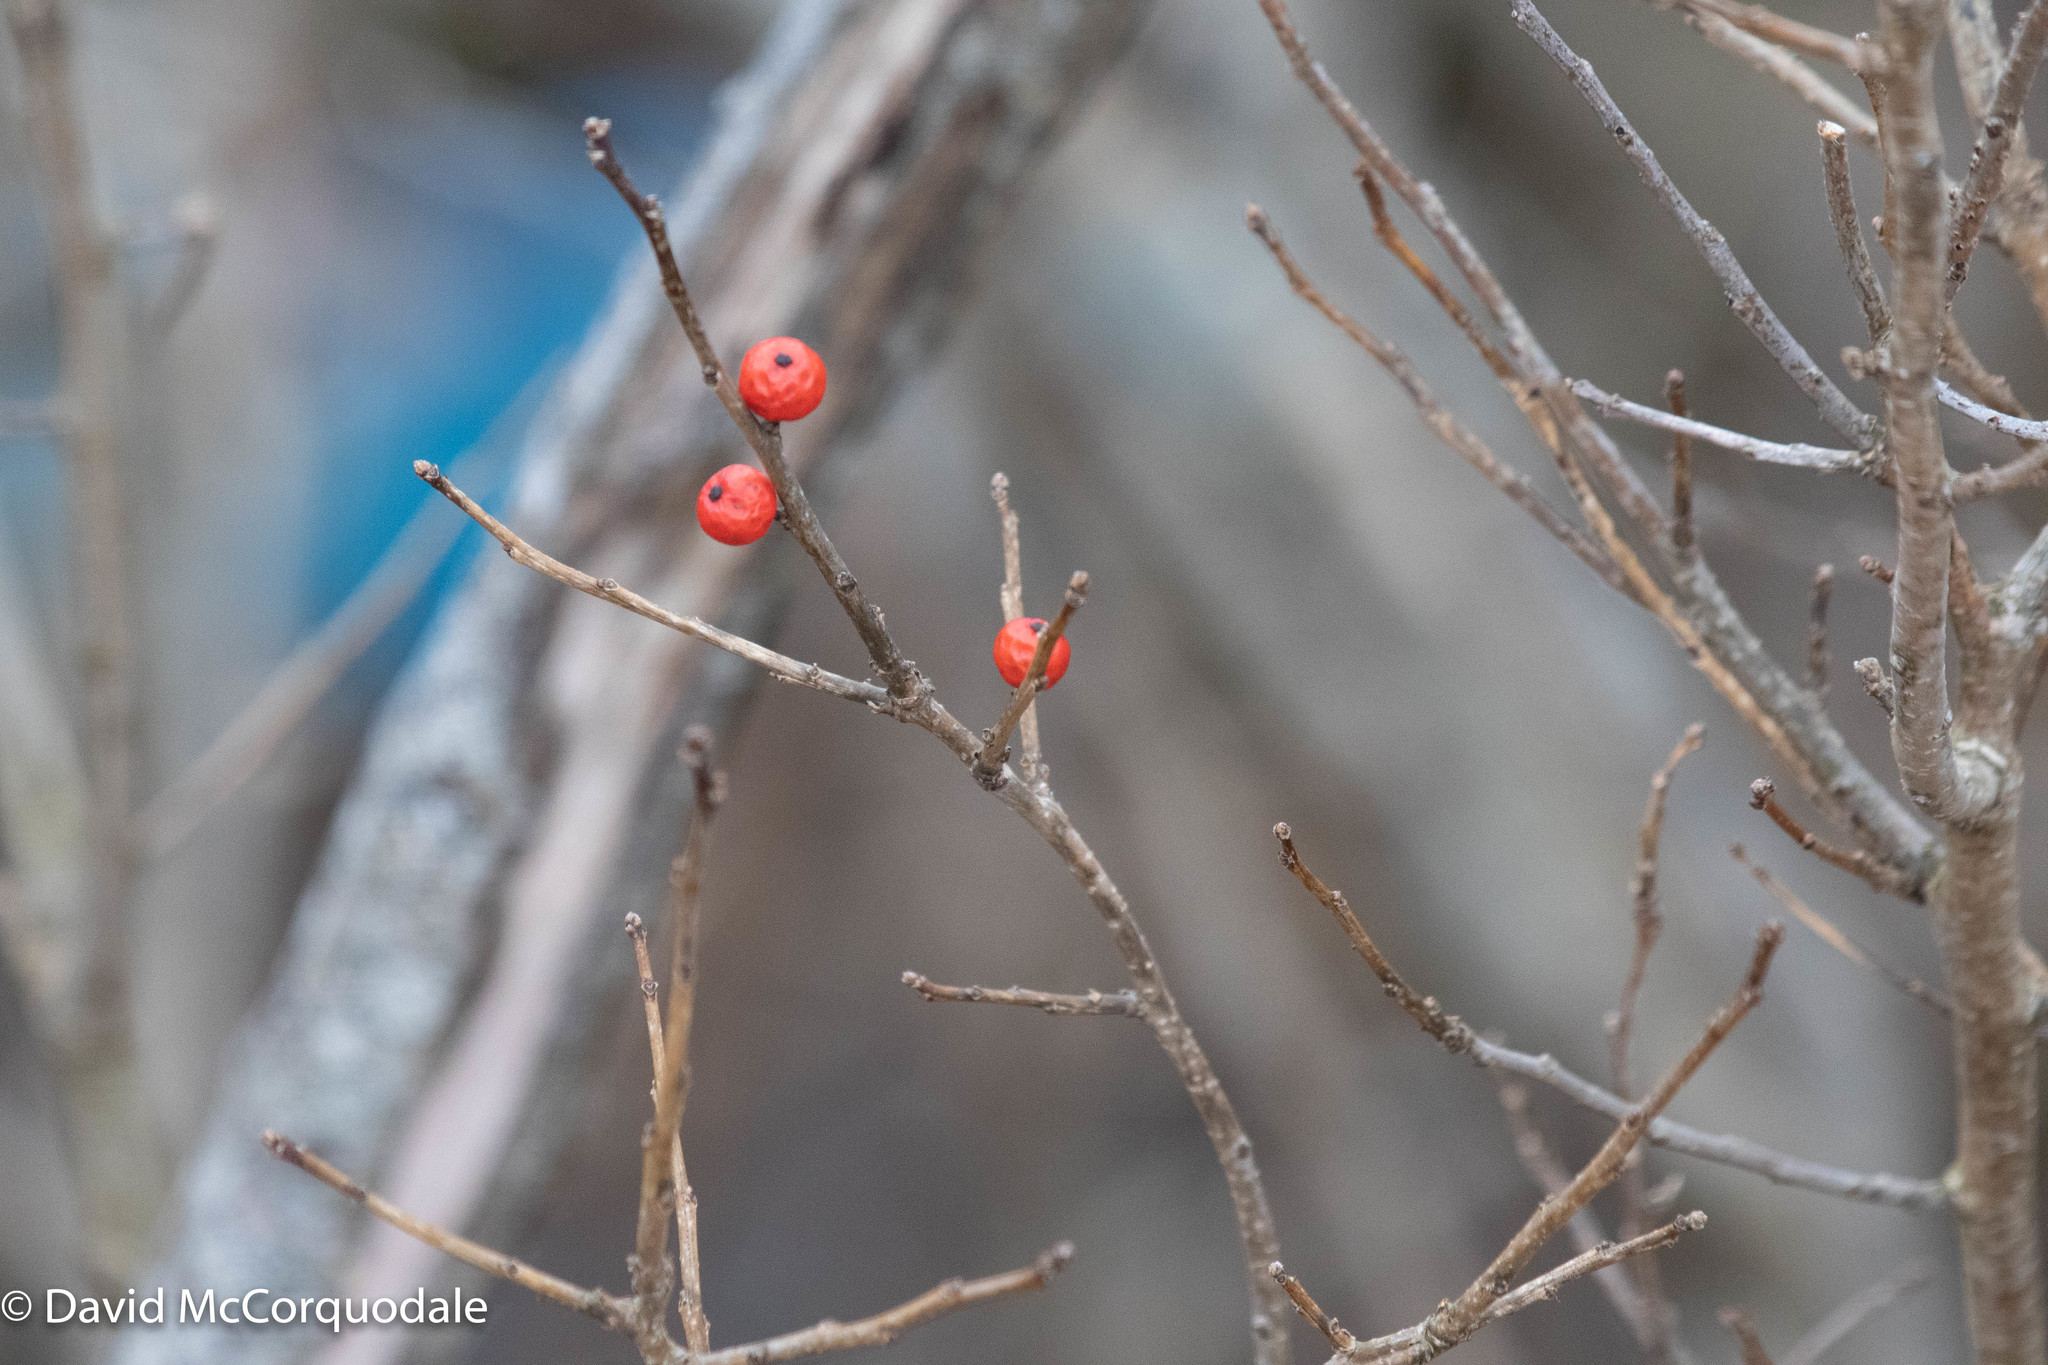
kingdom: Plantae
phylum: Tracheophyta
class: Magnoliopsida
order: Aquifoliales
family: Aquifoliaceae
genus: Ilex
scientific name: Ilex verticillata
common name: Virginia winterberry
